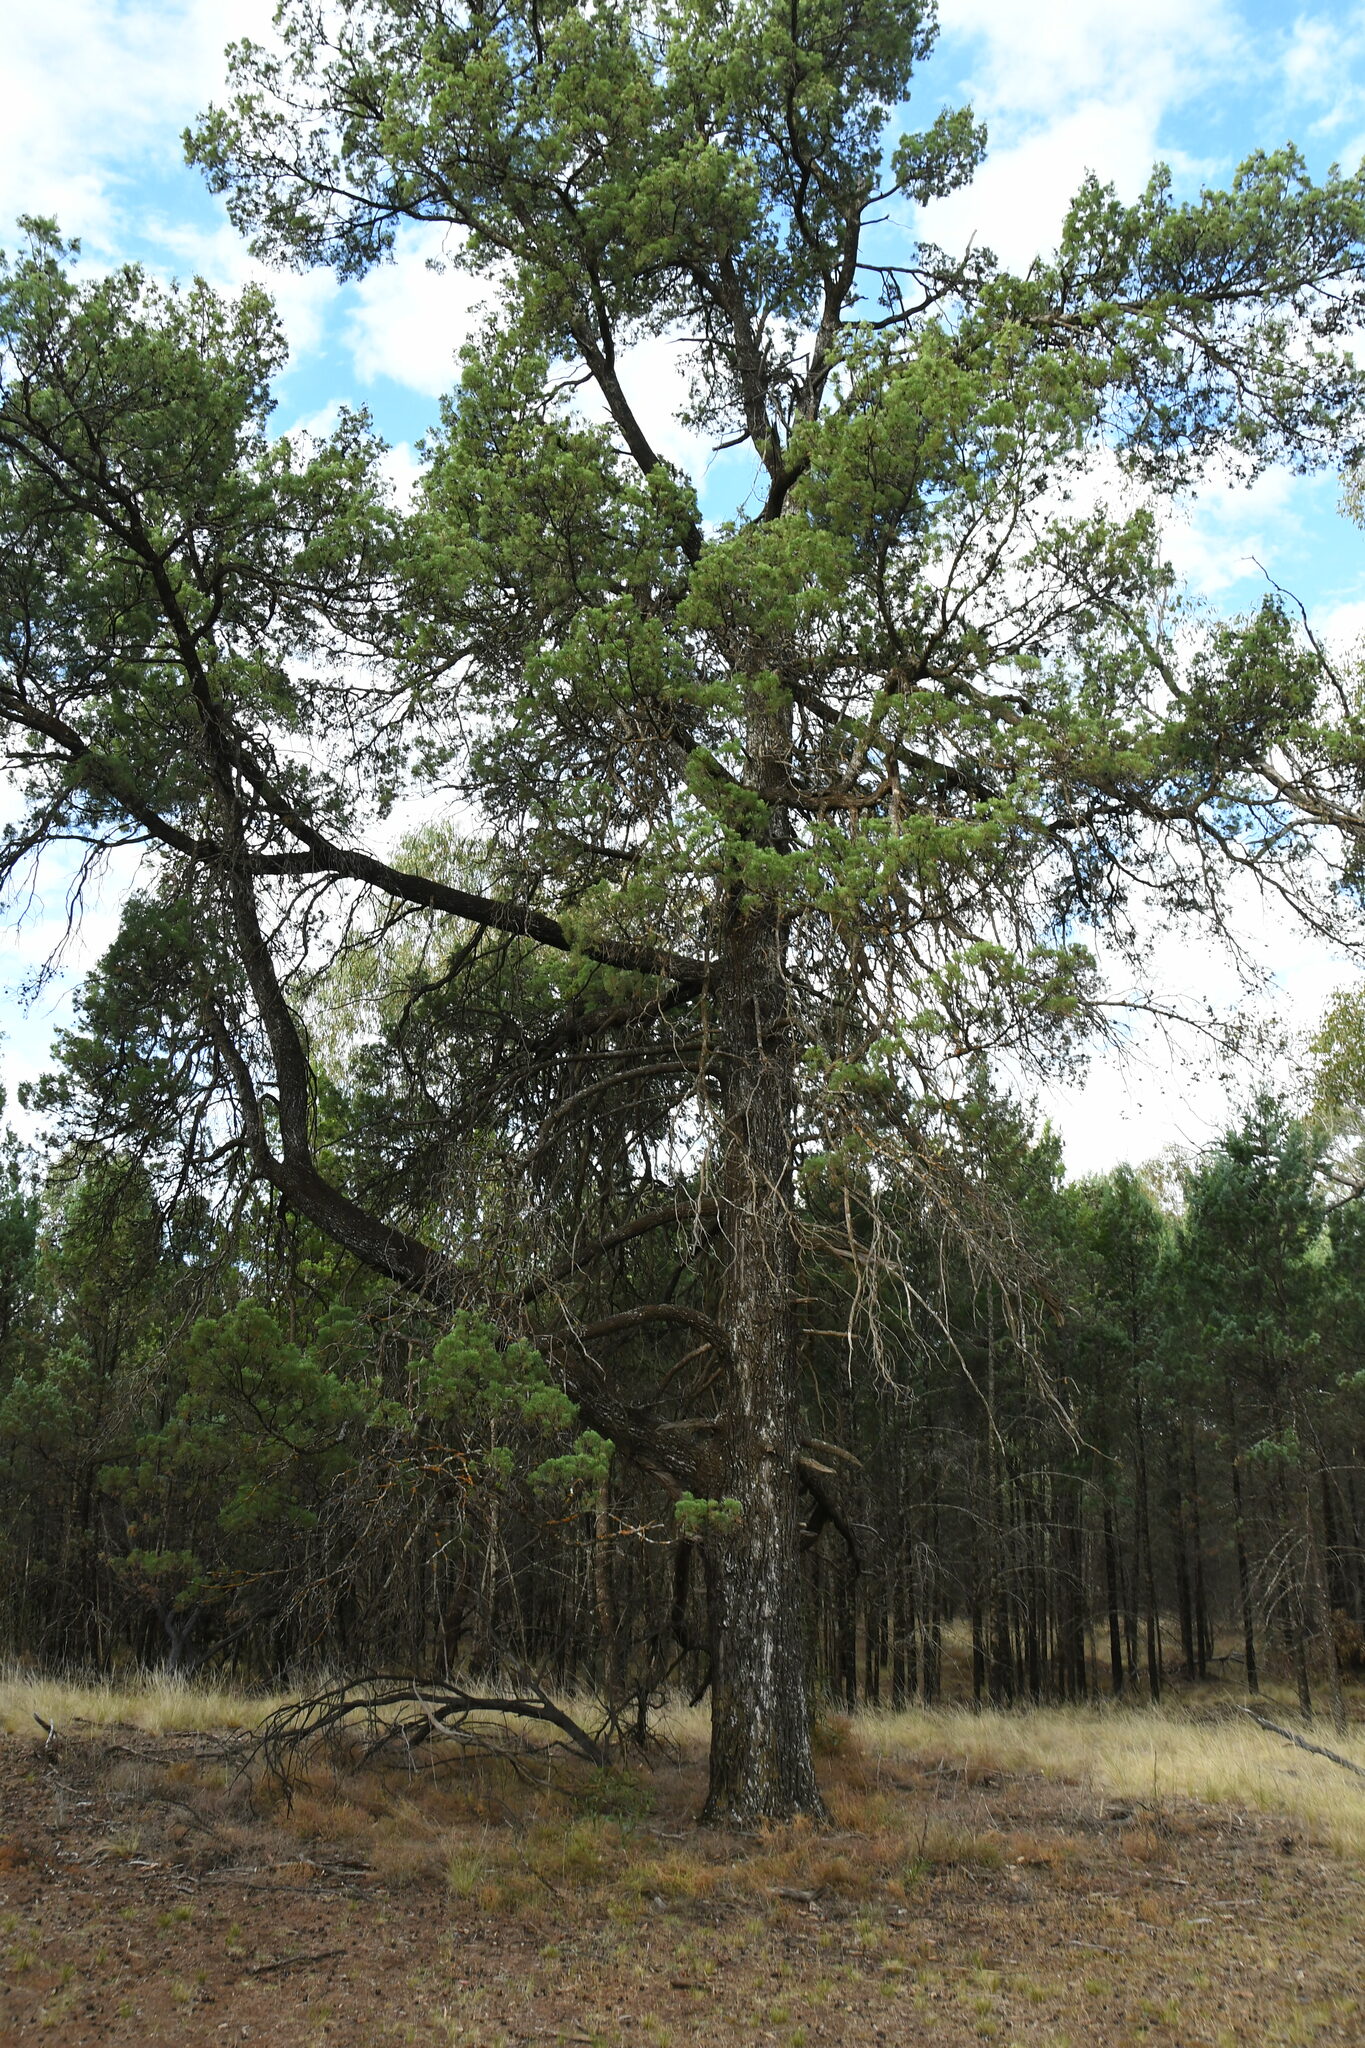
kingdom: Plantae
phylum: Tracheophyta
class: Pinopsida
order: Pinales
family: Cupressaceae
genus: Callitris
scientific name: Callitris columellaris
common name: White cypress-pine
